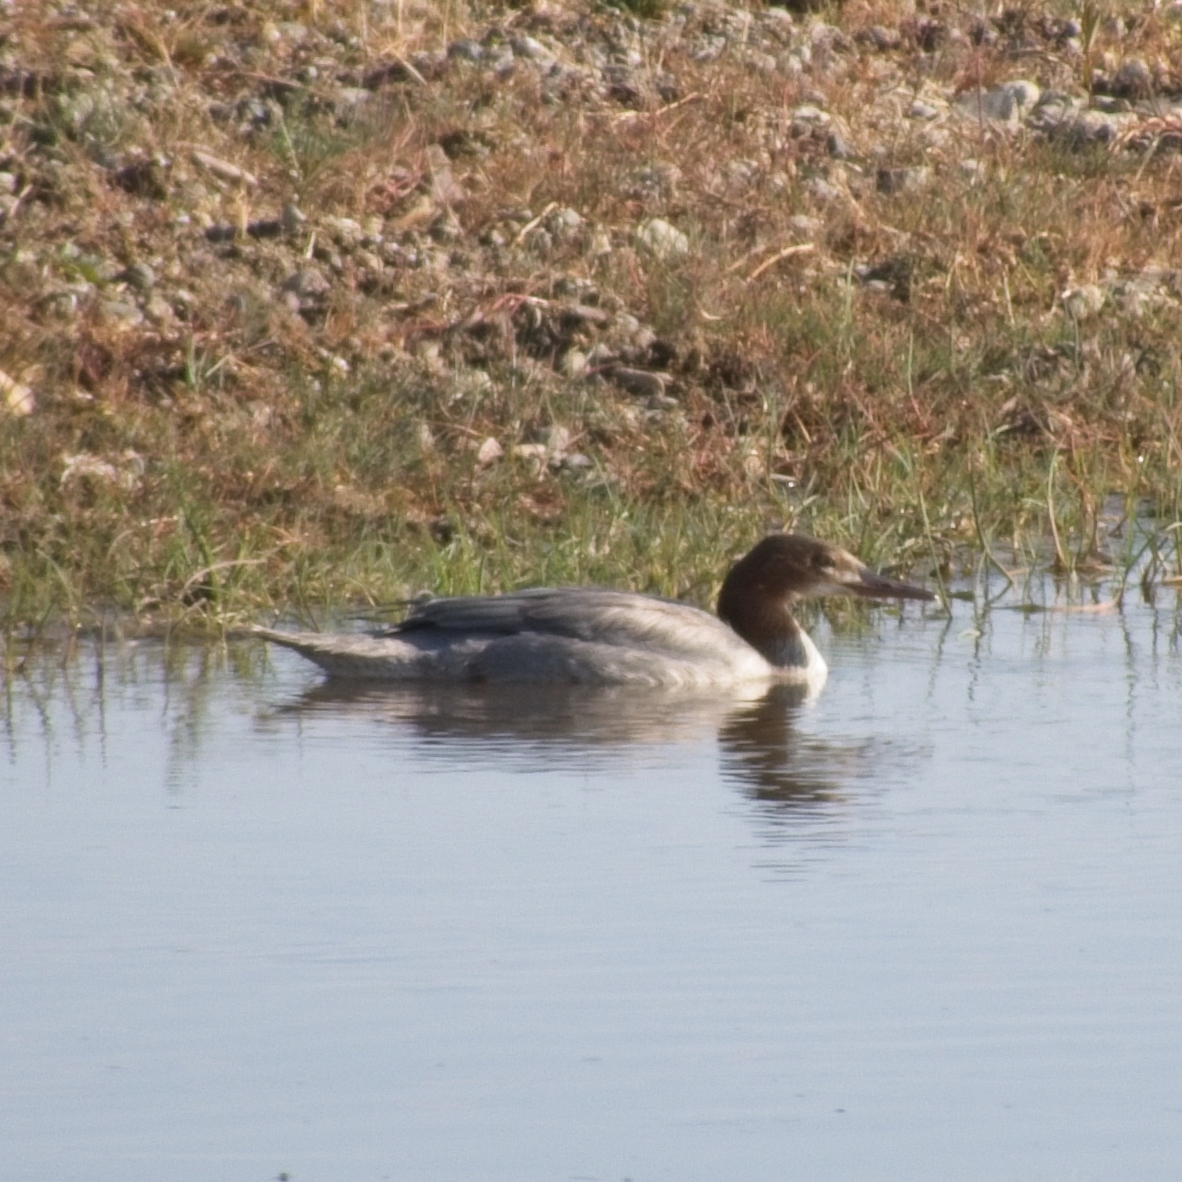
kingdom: Animalia
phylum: Chordata
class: Aves
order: Anseriformes
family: Anatidae
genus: Mergus
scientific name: Mergus merganser
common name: Common merganser
